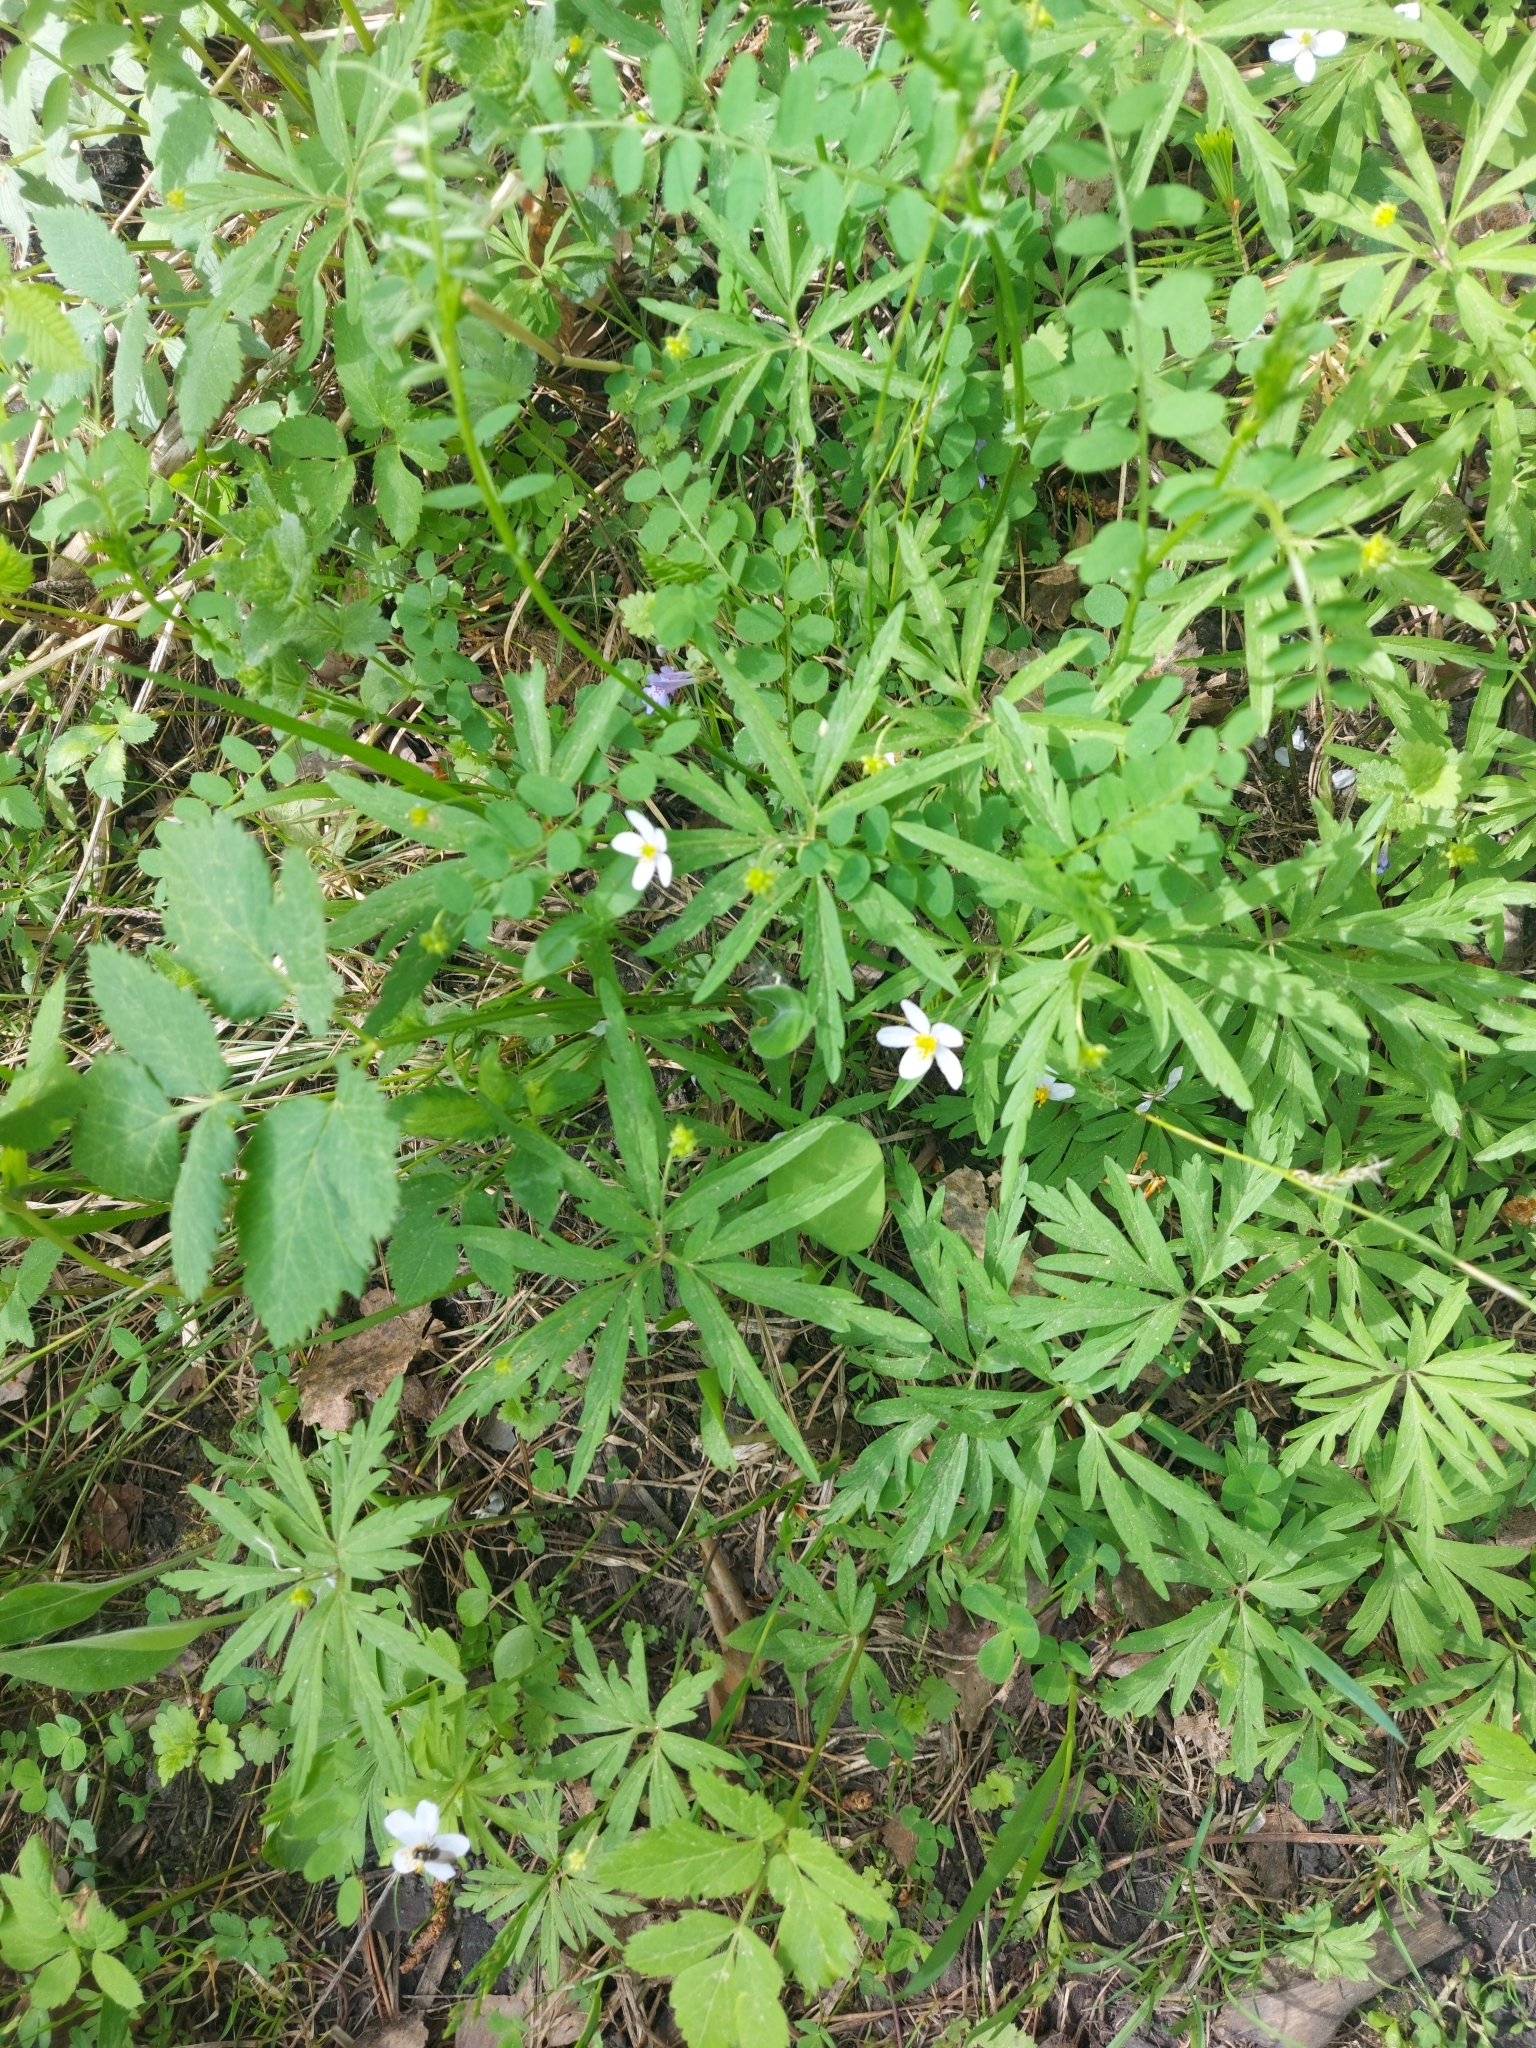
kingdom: Plantae
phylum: Tracheophyta
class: Magnoliopsida
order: Ranunculales
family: Ranunculaceae
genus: Anemone
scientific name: Anemone caerulea
